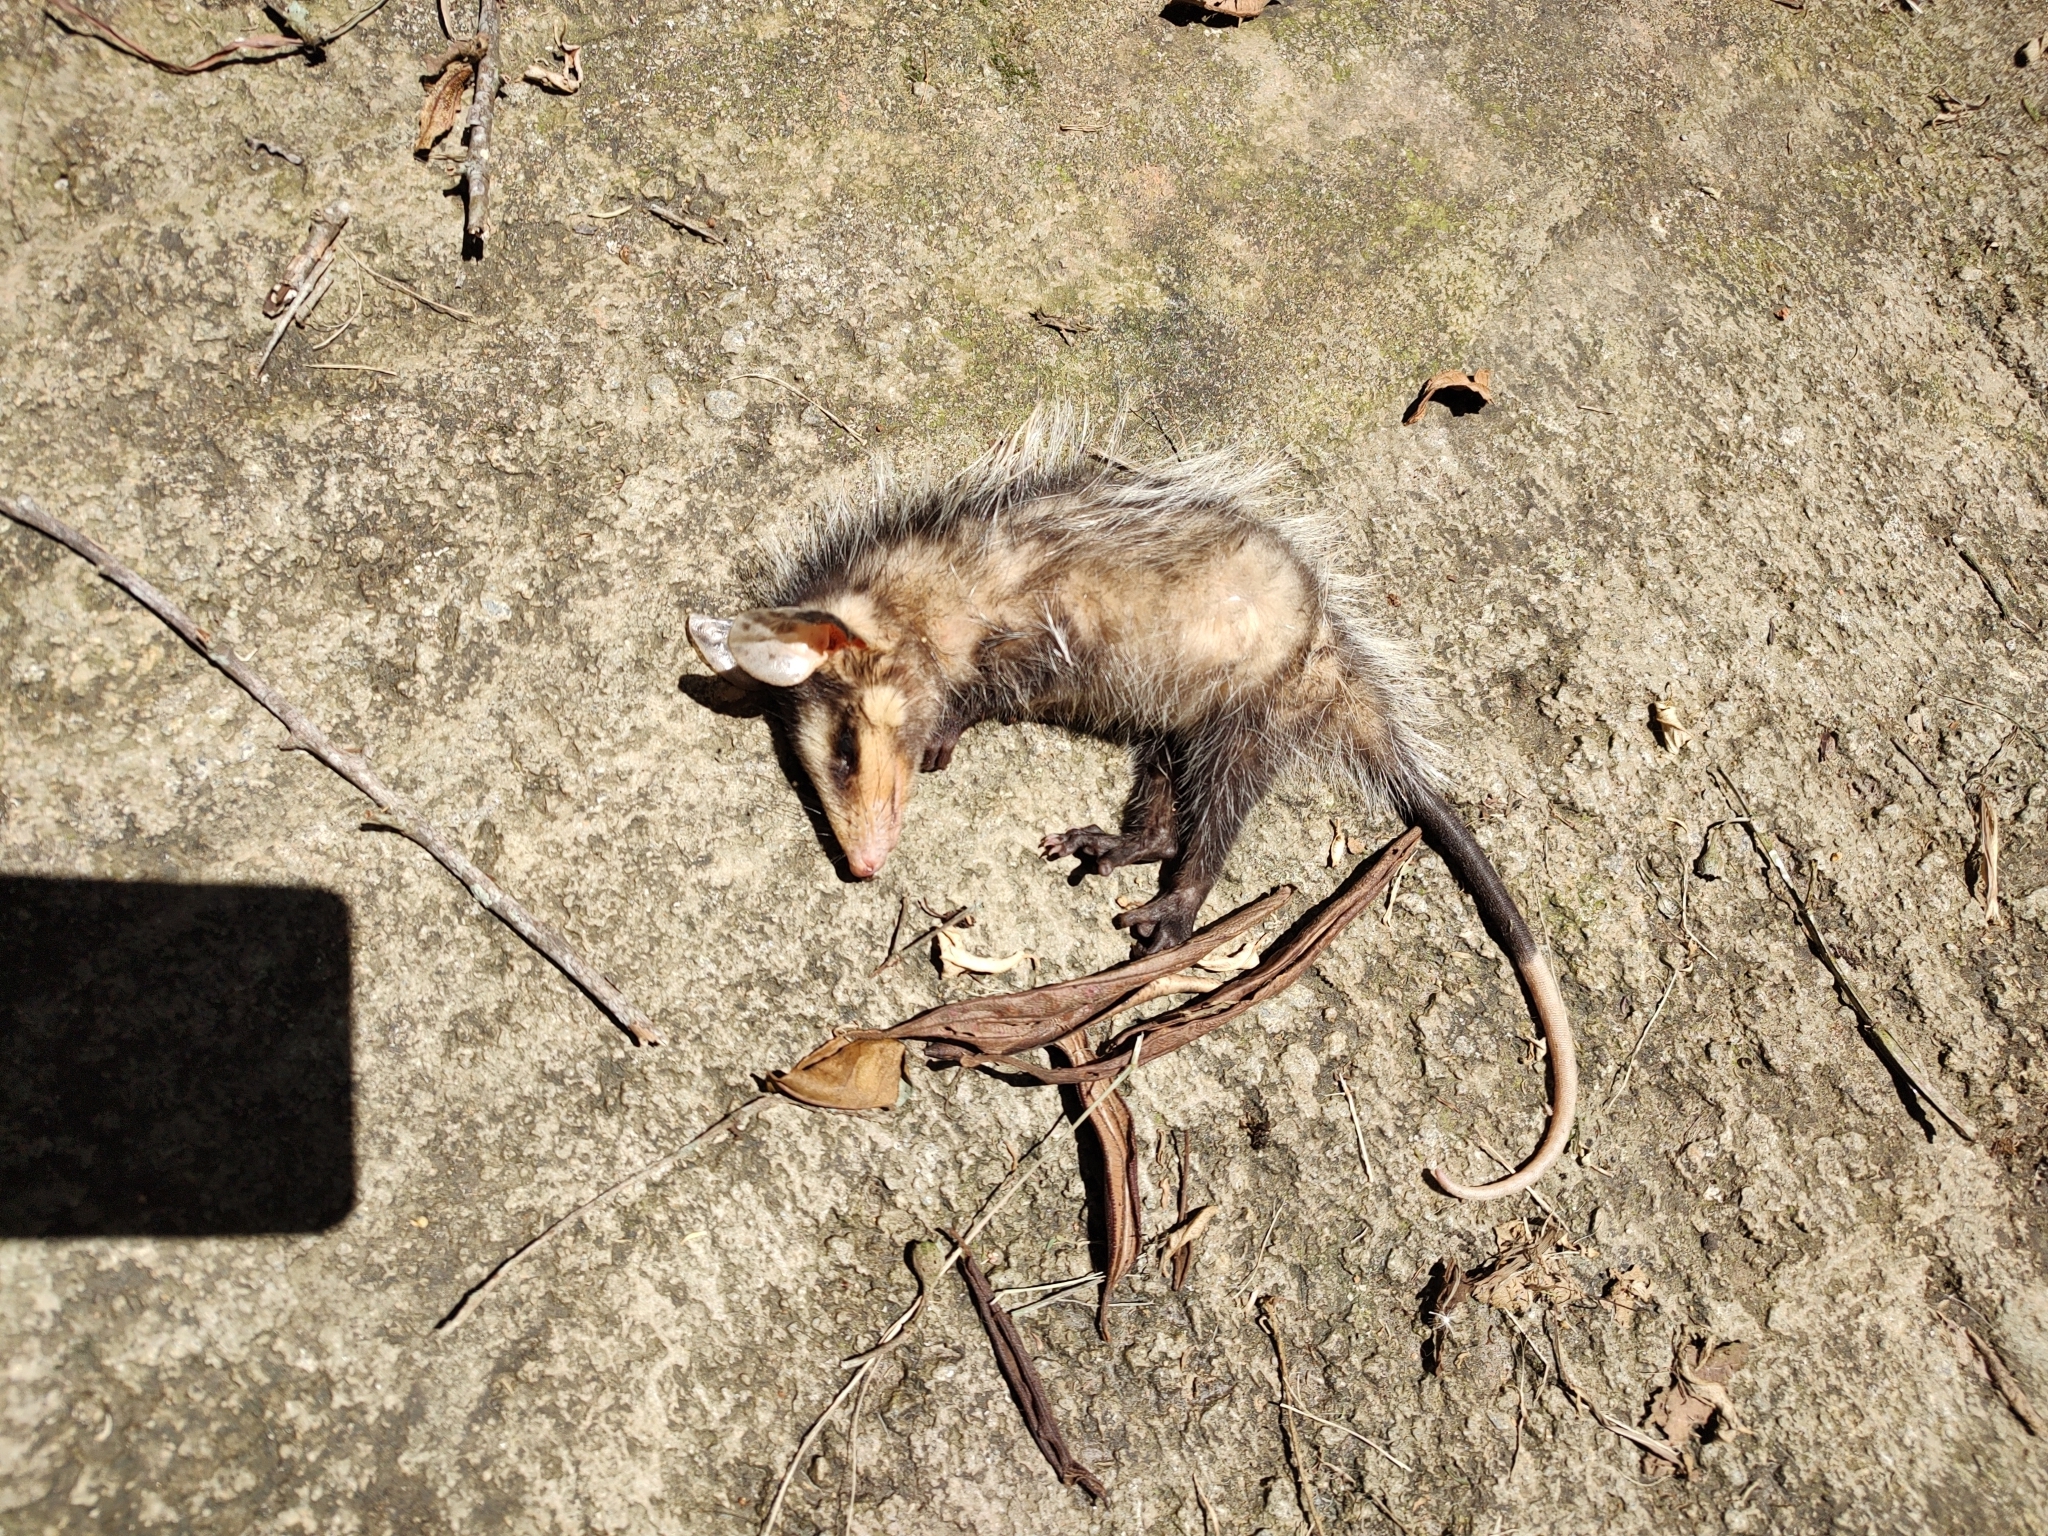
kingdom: Animalia
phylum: Chordata
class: Mammalia
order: Didelphimorphia
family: Didelphidae
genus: Didelphis
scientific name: Didelphis albiventris
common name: White-eared opossum
